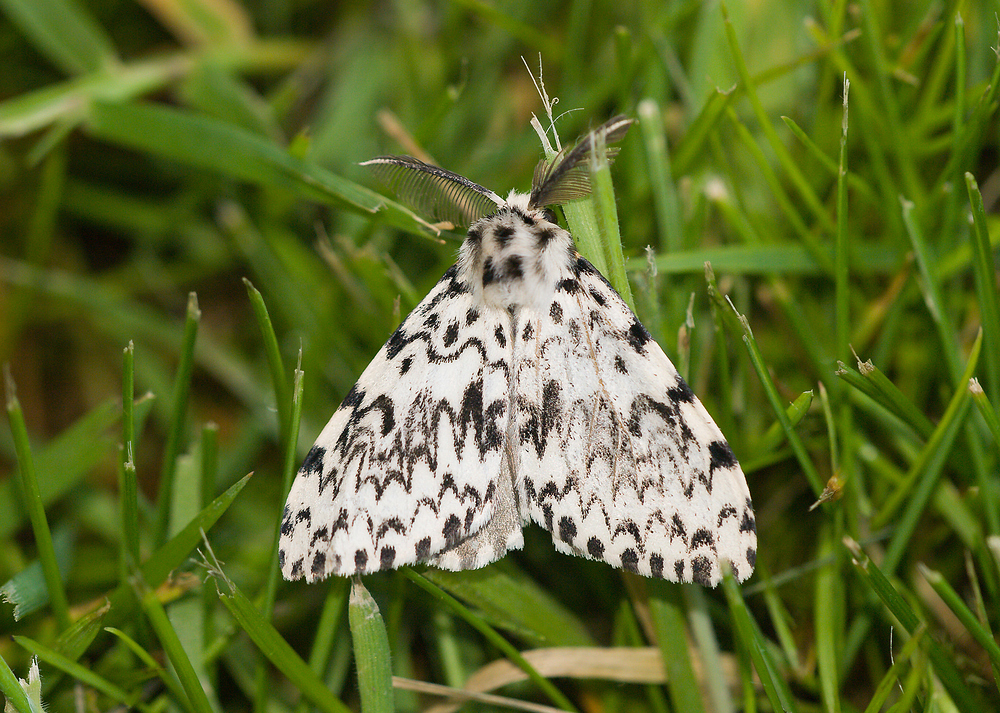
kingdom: Animalia
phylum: Arthropoda
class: Insecta
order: Lepidoptera
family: Erebidae
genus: Lymantria
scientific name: Lymantria monacha
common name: Black arches
